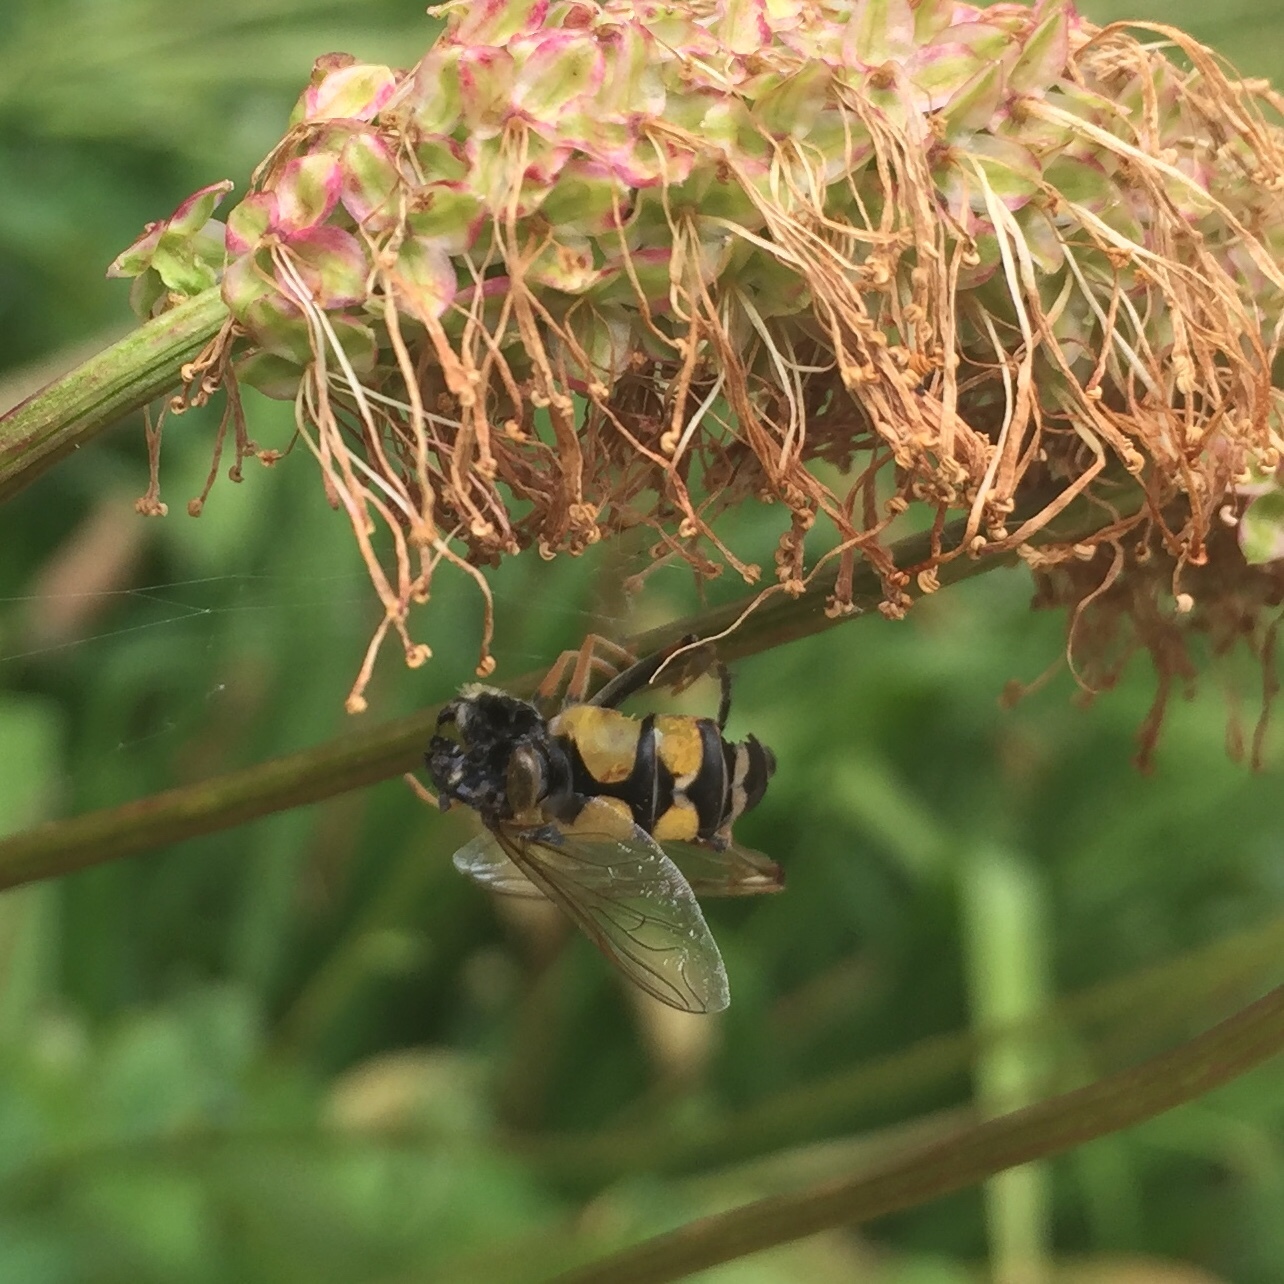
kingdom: Animalia
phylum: Arthropoda
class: Insecta
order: Diptera
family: Syrphidae
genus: Helophilus
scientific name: Helophilus trivittatus
